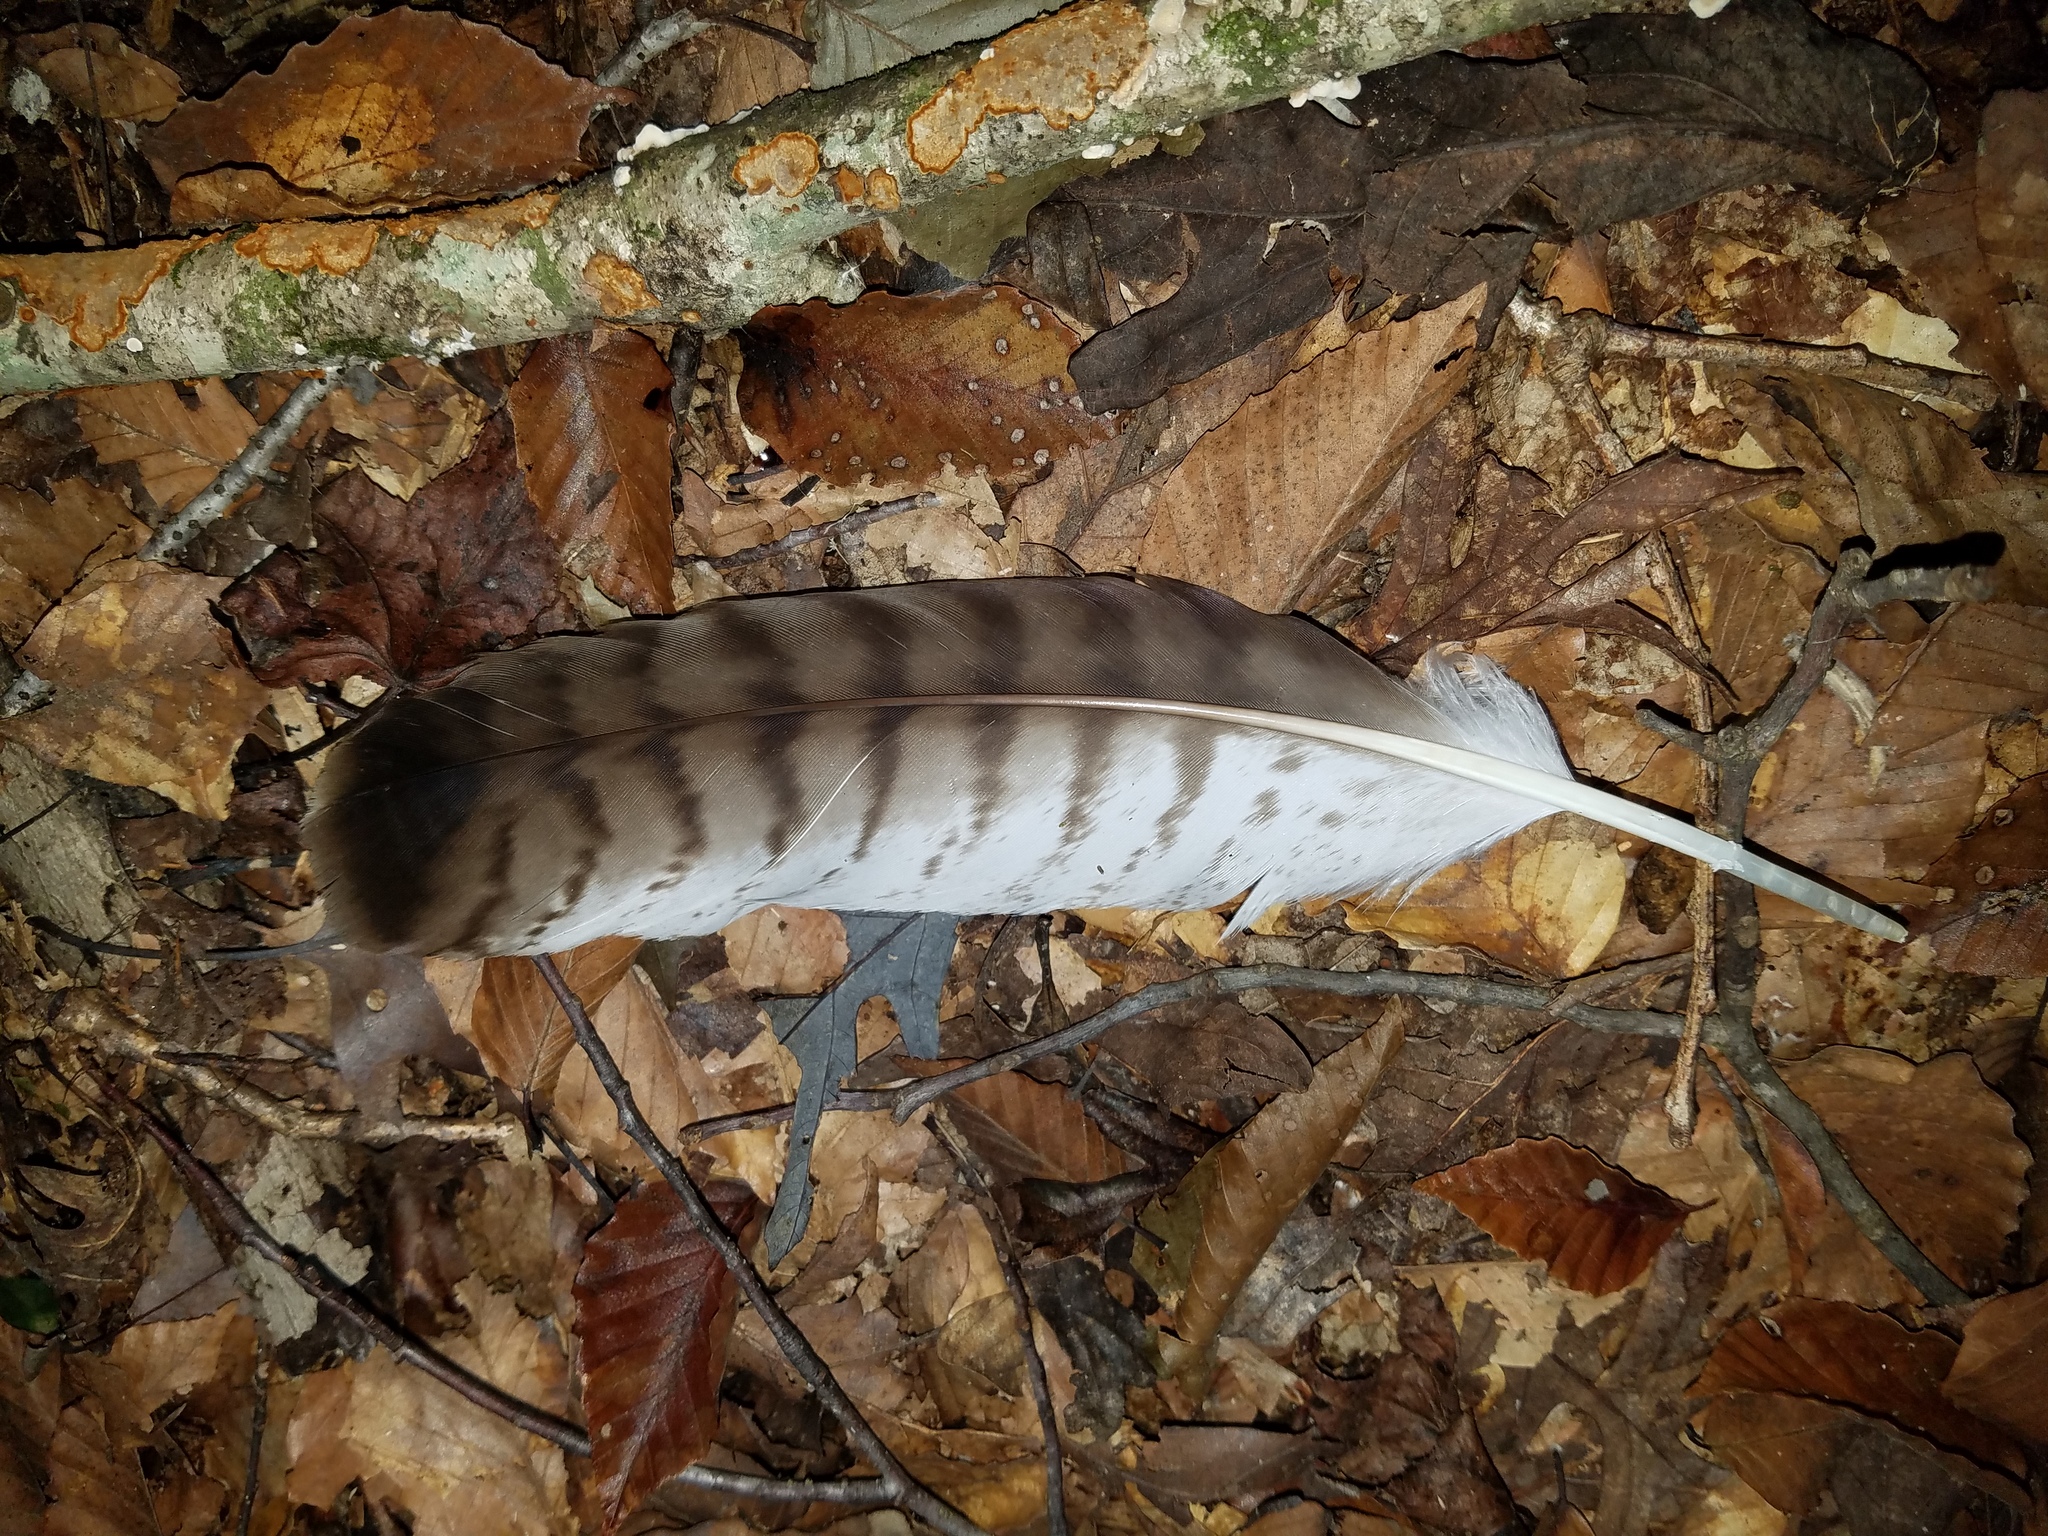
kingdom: Animalia
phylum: Chordata
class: Aves
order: Accipitriformes
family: Accipitridae
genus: Buteo
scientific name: Buteo jamaicensis
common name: Red-tailed hawk
